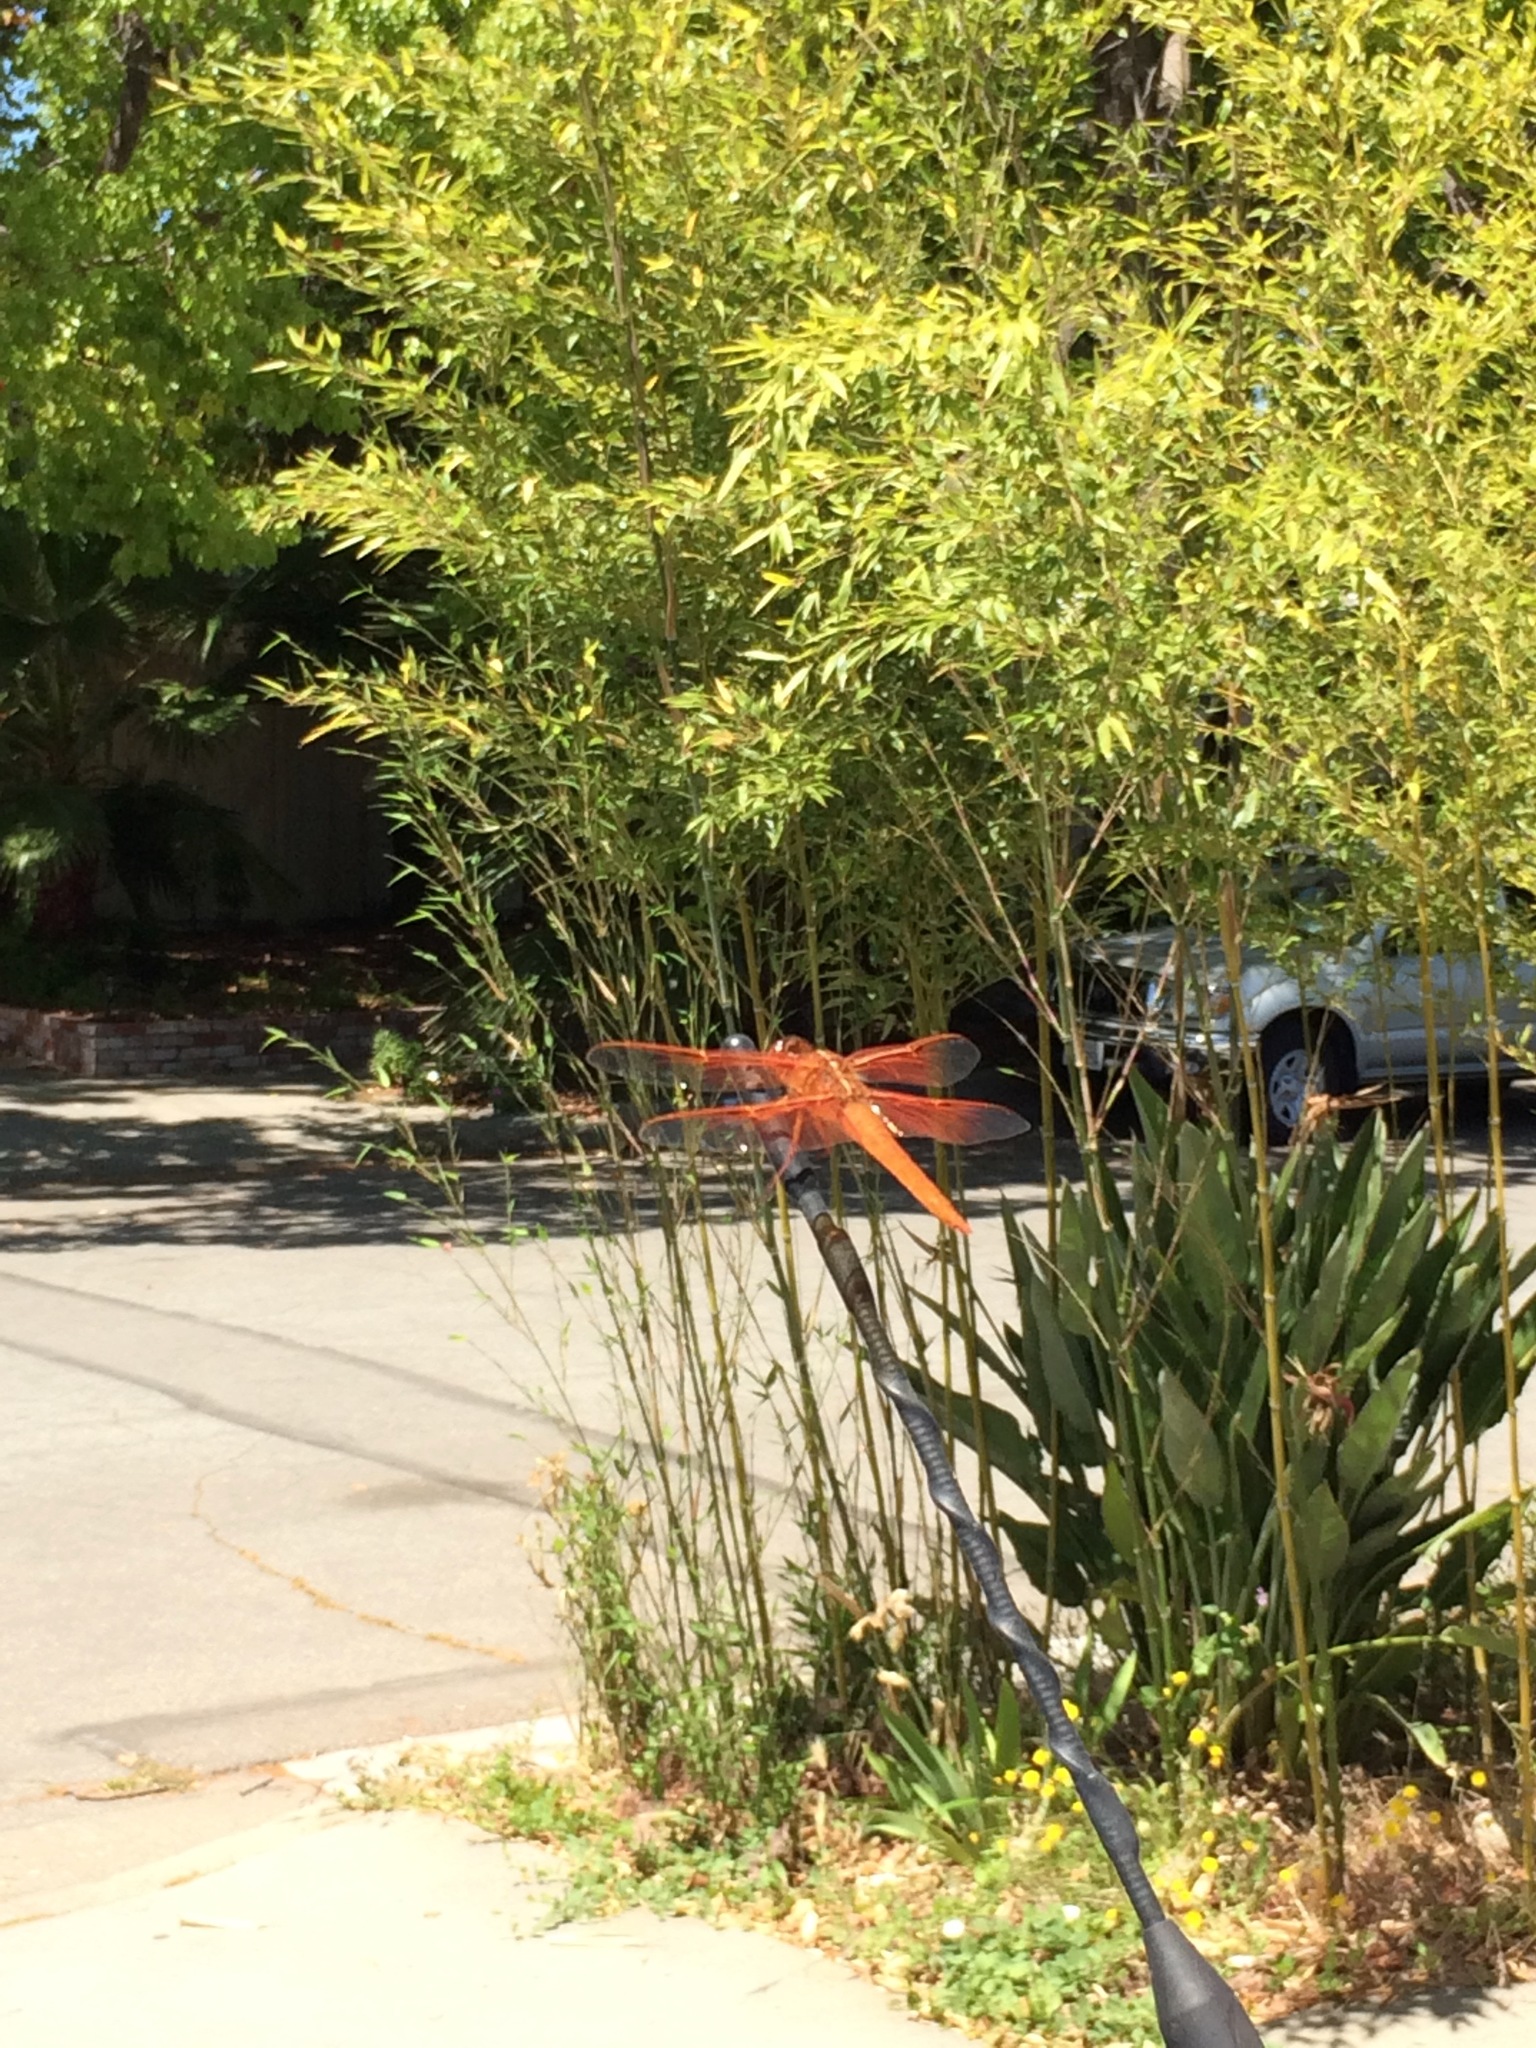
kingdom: Animalia
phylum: Arthropoda
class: Insecta
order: Odonata
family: Libellulidae
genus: Libellula
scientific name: Libellula saturata
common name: Flame skimmer
